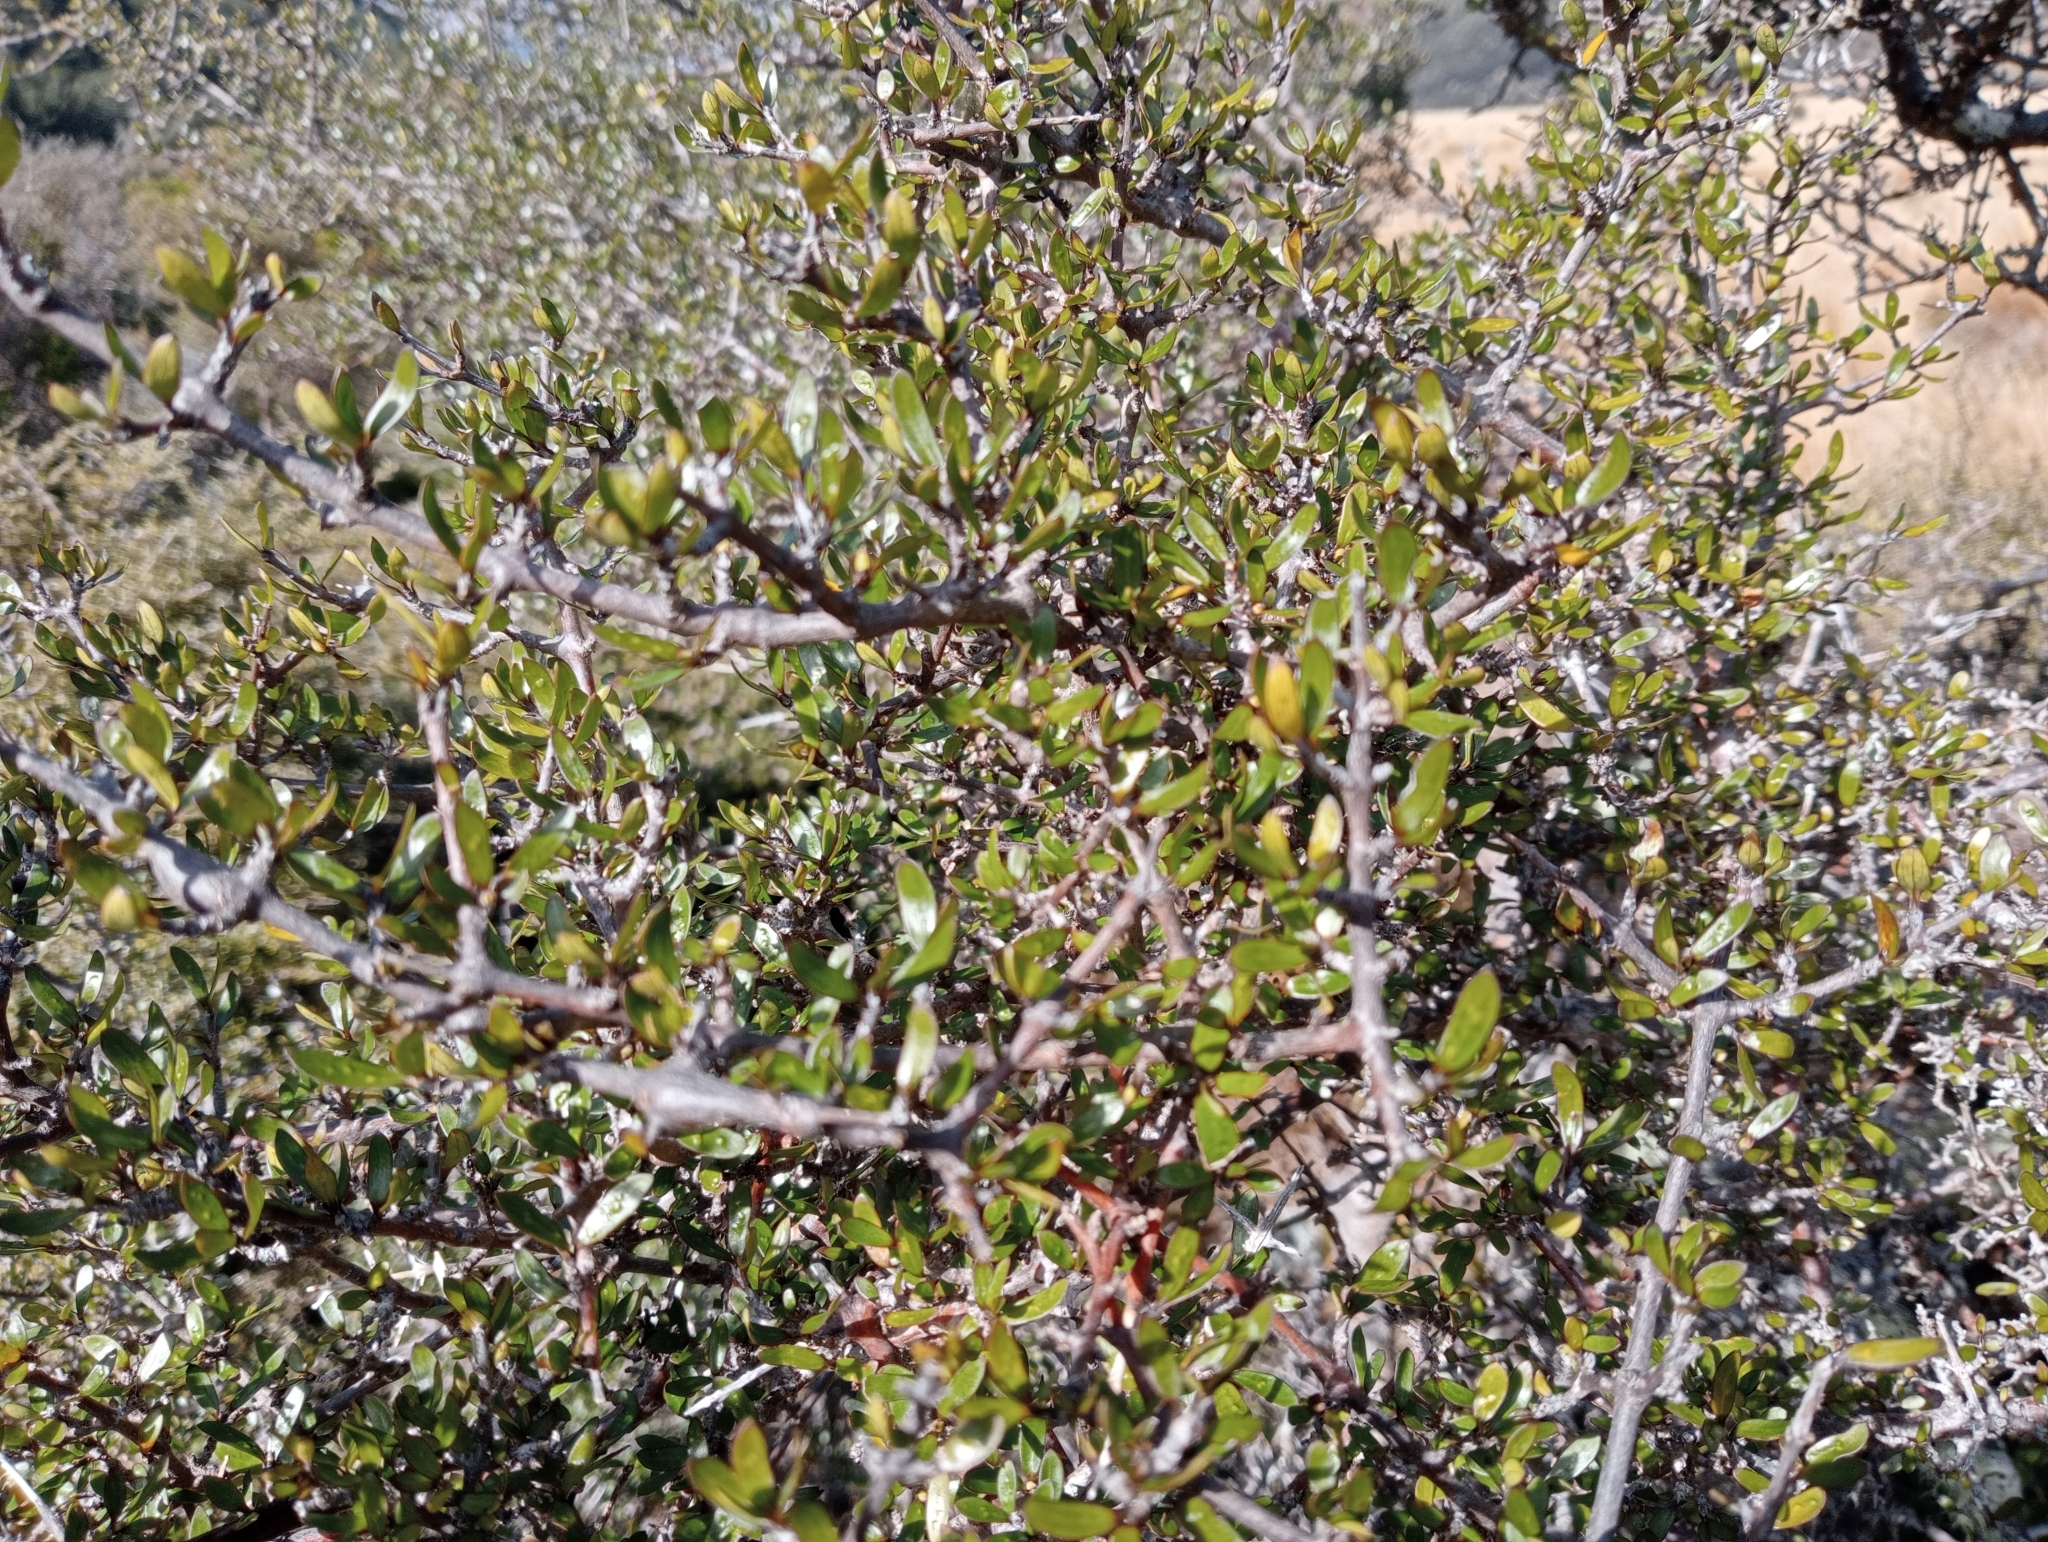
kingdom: Plantae
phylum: Tracheophyta
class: Magnoliopsida
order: Gentianales
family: Rubiaceae
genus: Coprosma
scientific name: Coprosma propinqua
